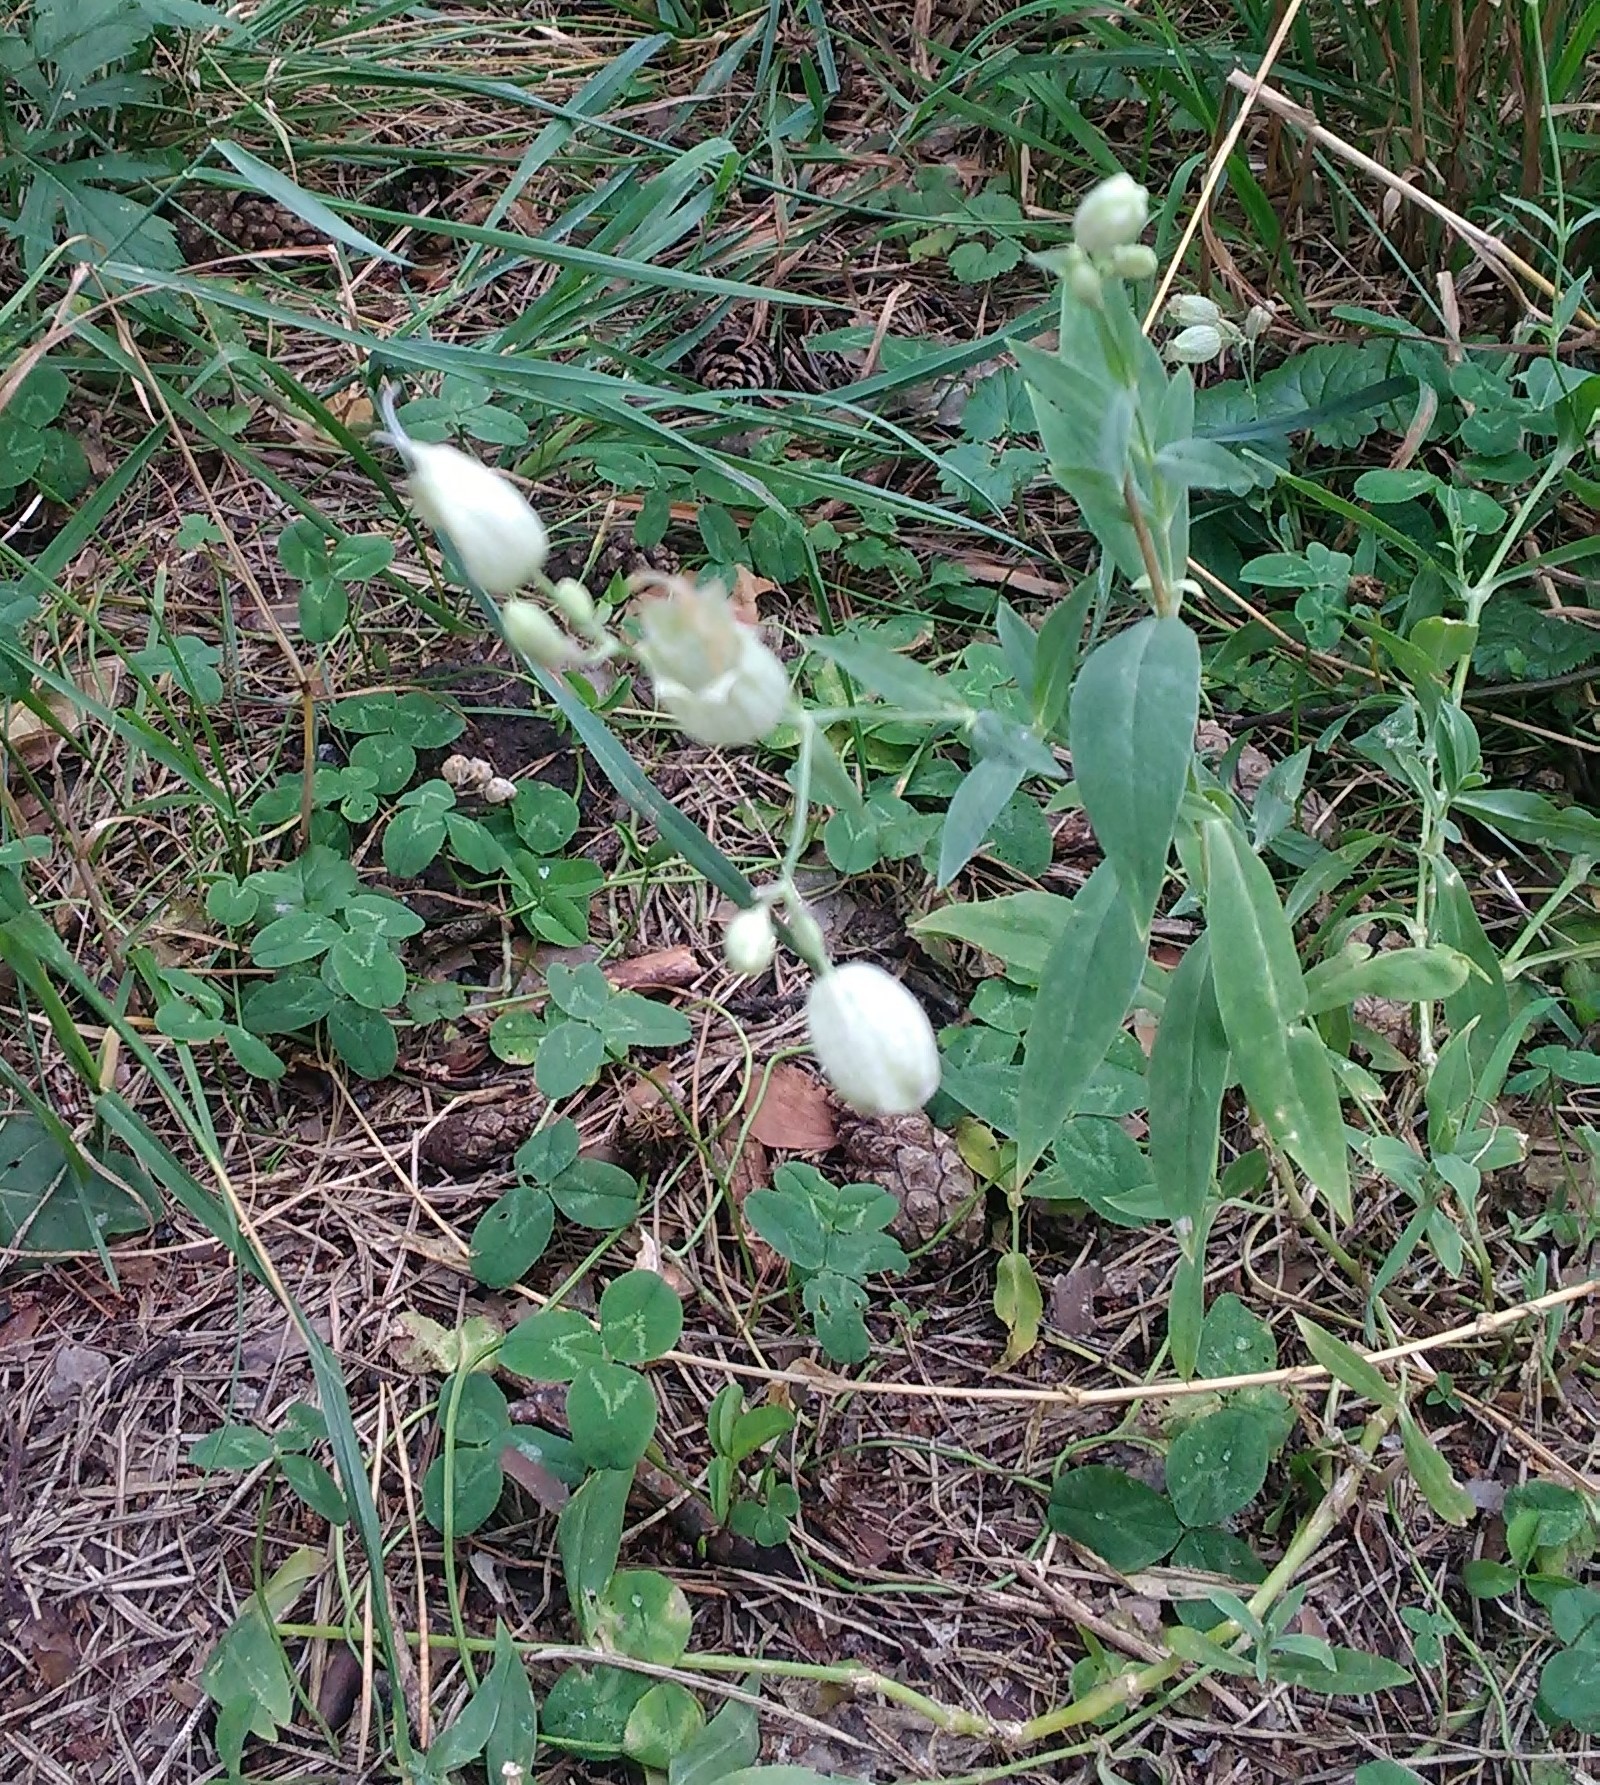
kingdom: Plantae
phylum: Tracheophyta
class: Magnoliopsida
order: Caryophyllales
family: Caryophyllaceae
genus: Silene
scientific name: Silene vulgaris
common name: Bladder campion
